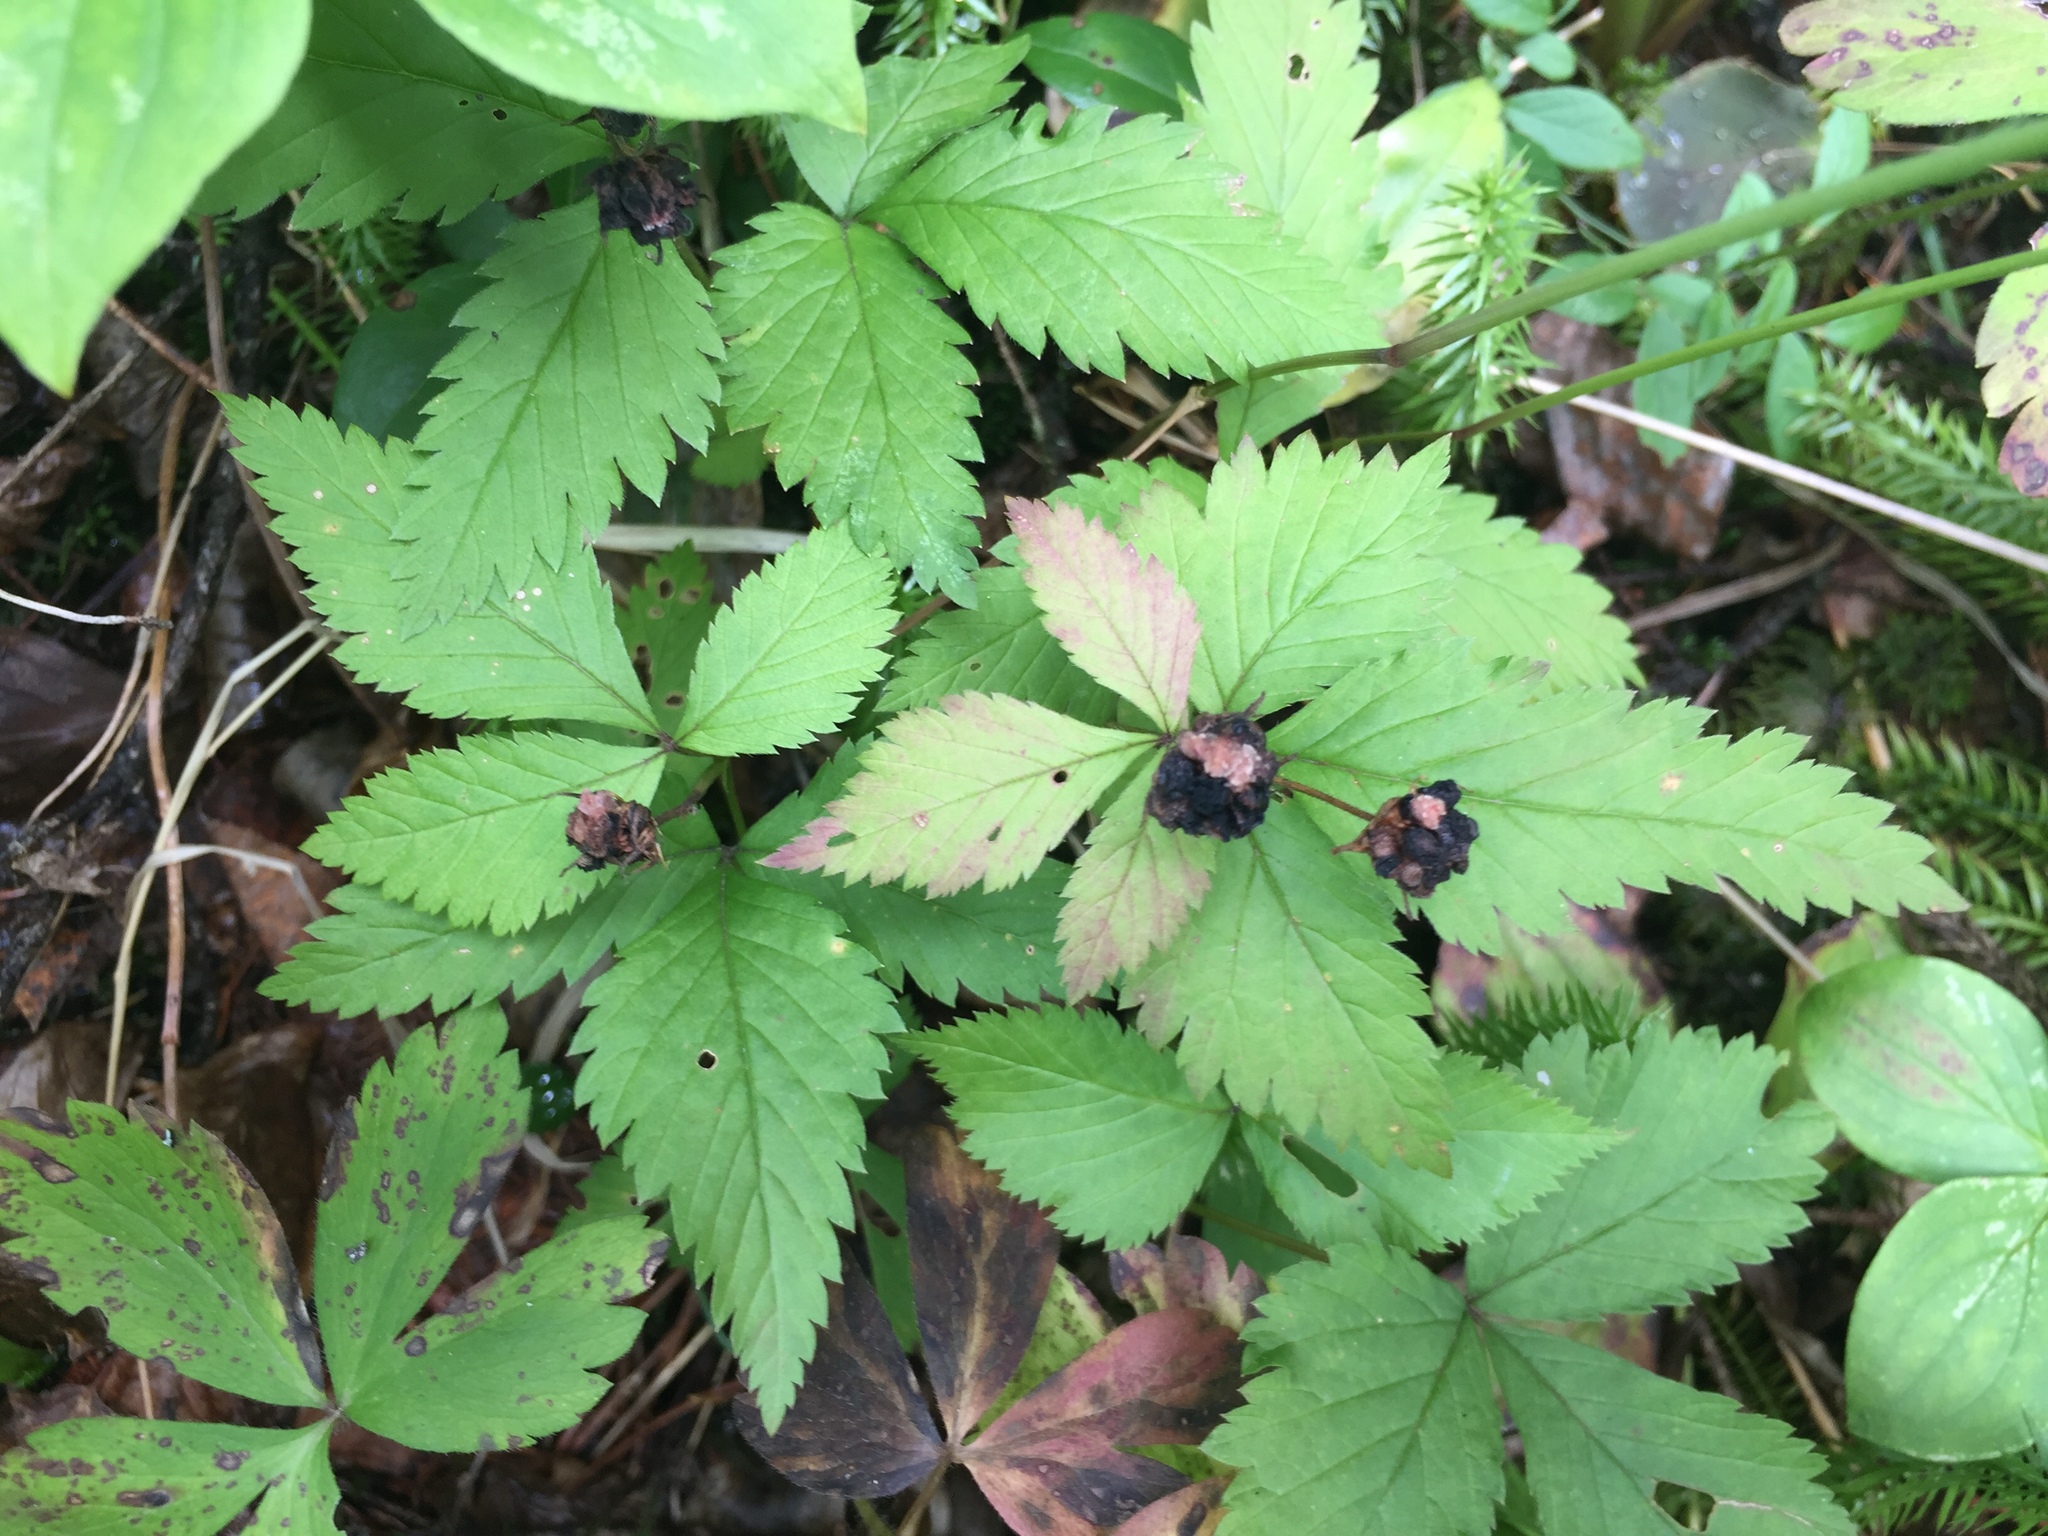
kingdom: Plantae
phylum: Tracheophyta
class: Magnoliopsida
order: Rosales
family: Rosaceae
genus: Rubus
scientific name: Rubus pubescens
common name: Dwarf raspberry
